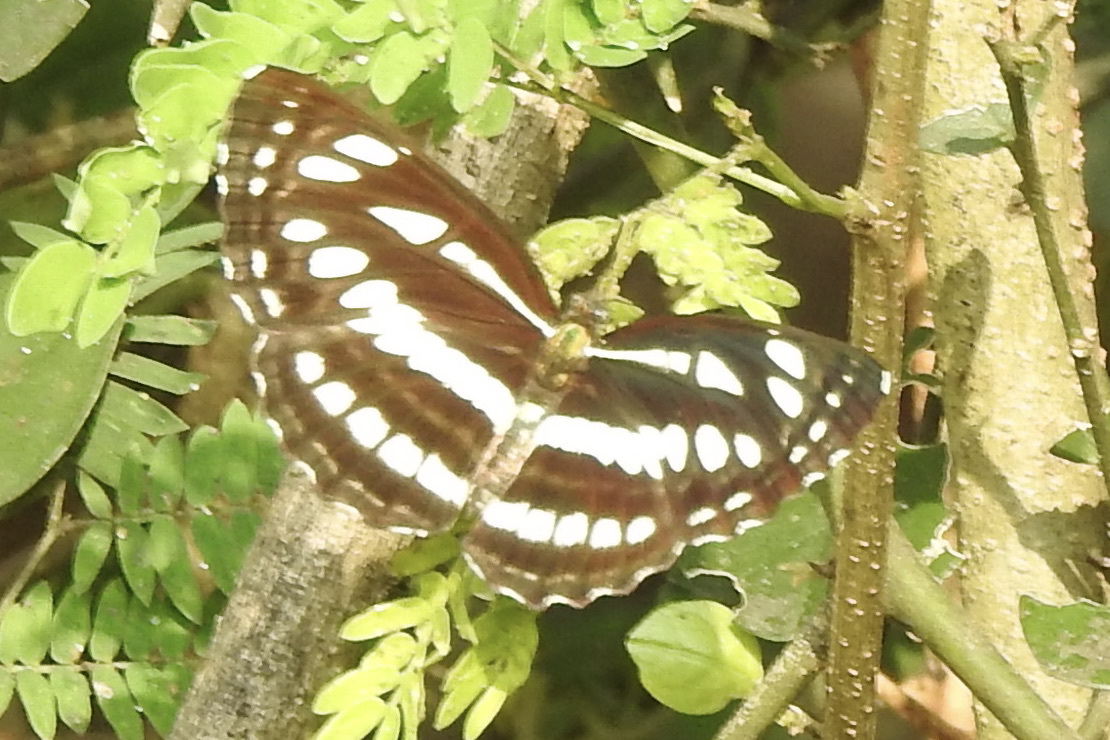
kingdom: Animalia
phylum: Arthropoda
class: Insecta
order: Lepidoptera
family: Nymphalidae
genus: Neptis
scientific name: Neptis hylas
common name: Common sailer
